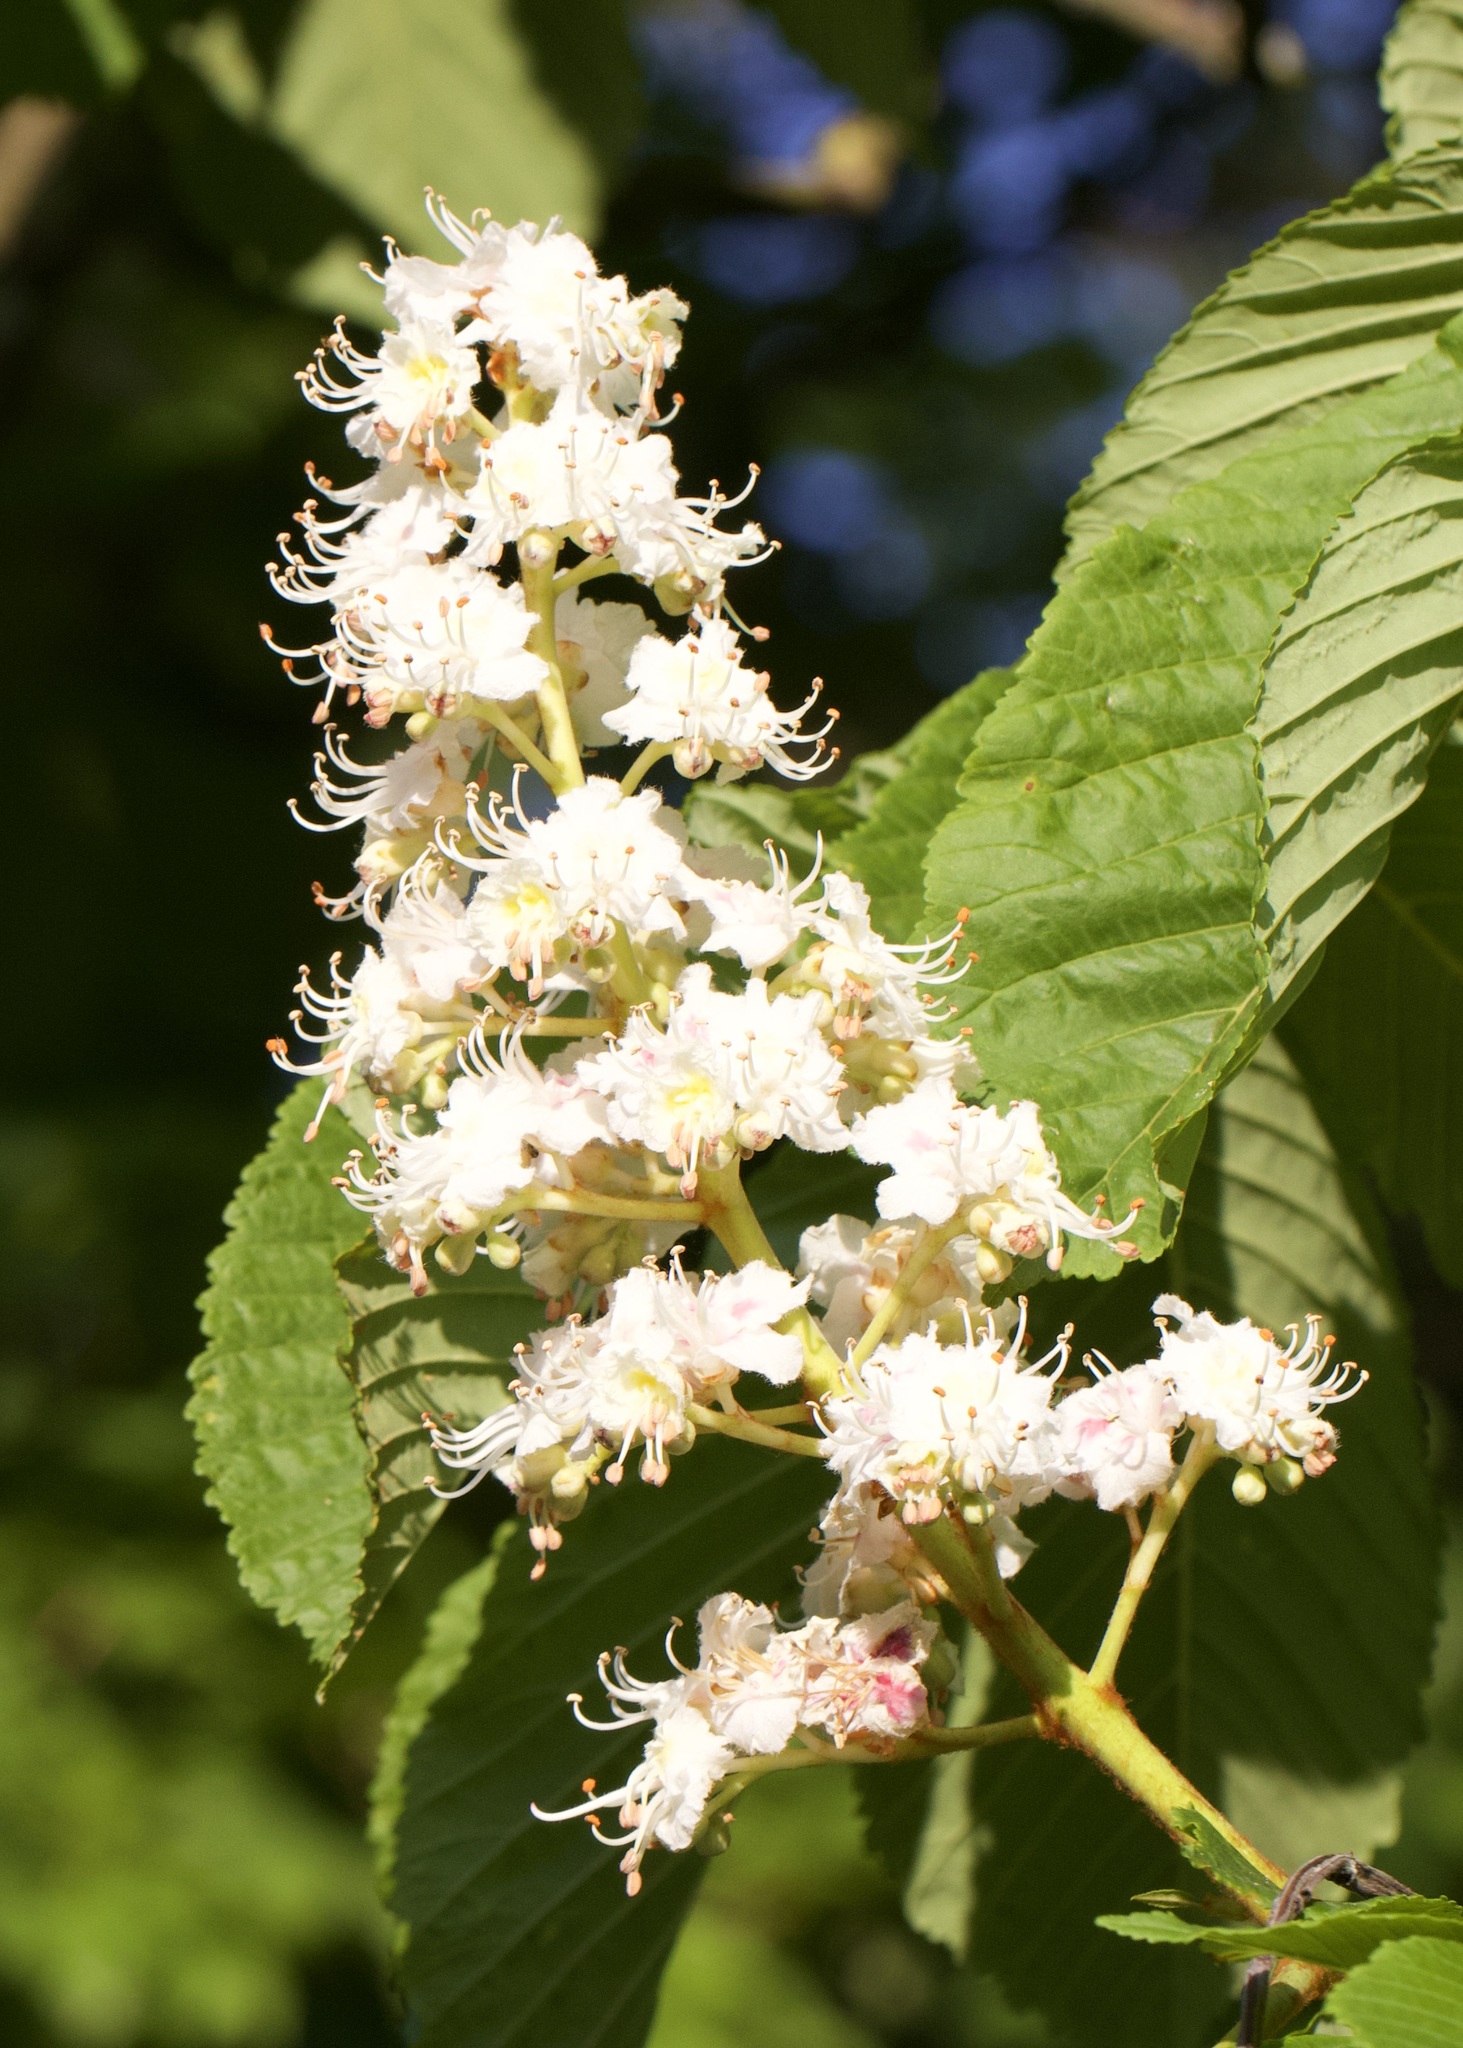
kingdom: Plantae
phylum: Tracheophyta
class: Magnoliopsida
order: Sapindales
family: Sapindaceae
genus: Aesculus
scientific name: Aesculus hippocastanum
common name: Horse-chestnut
